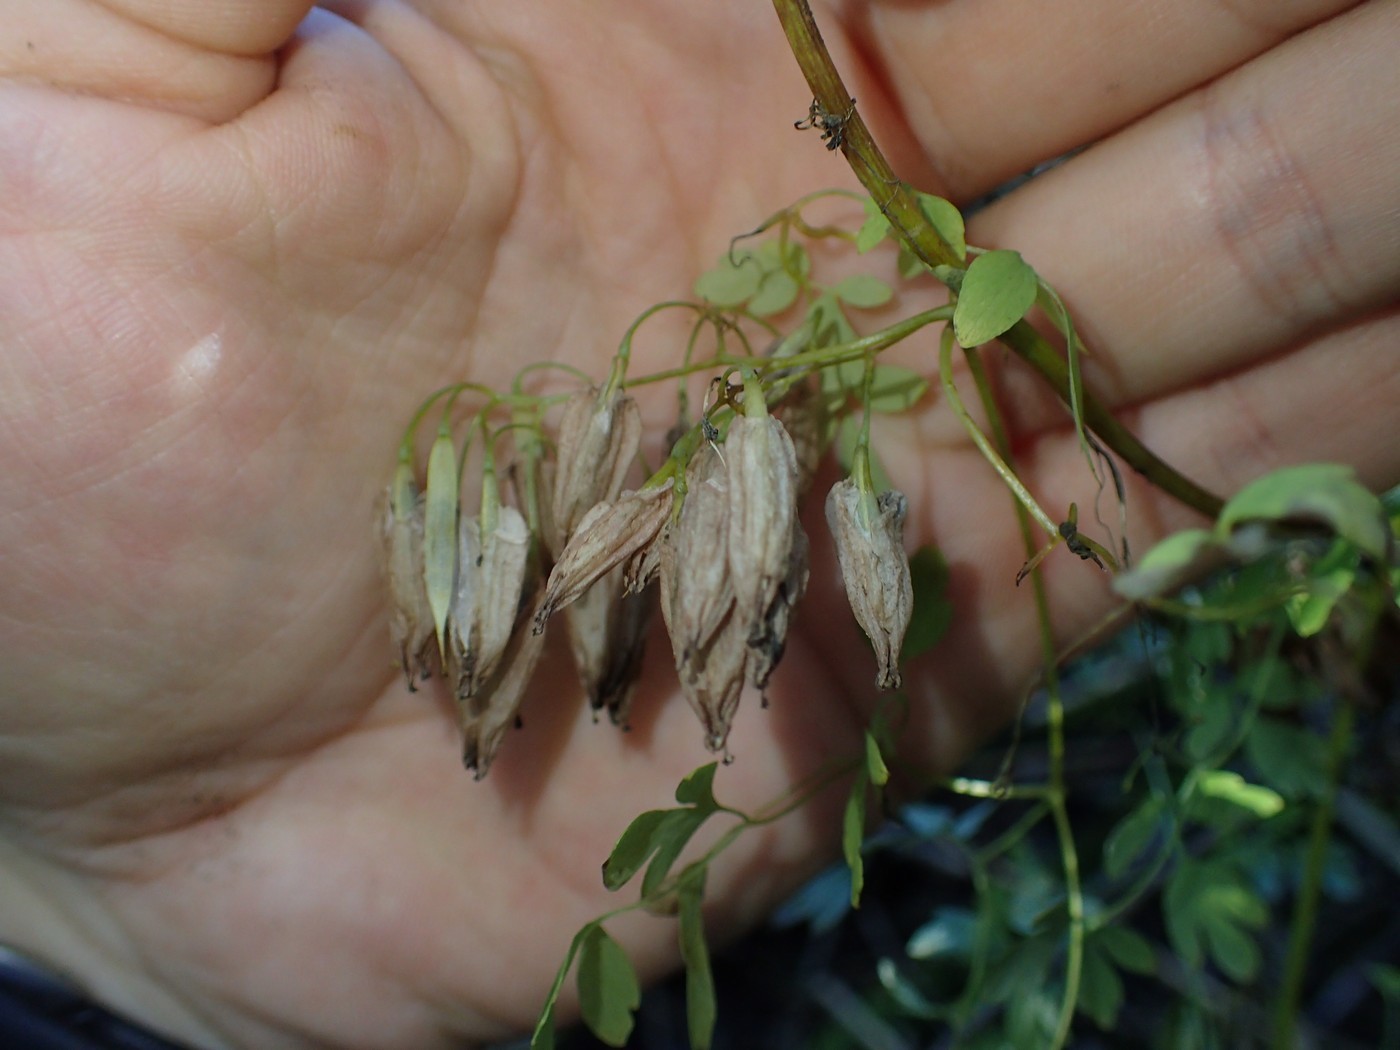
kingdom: Plantae
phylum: Tracheophyta
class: Magnoliopsida
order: Ranunculales
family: Papaveraceae
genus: Adlumia
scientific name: Adlumia fungosa
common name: Mountain-fringe
